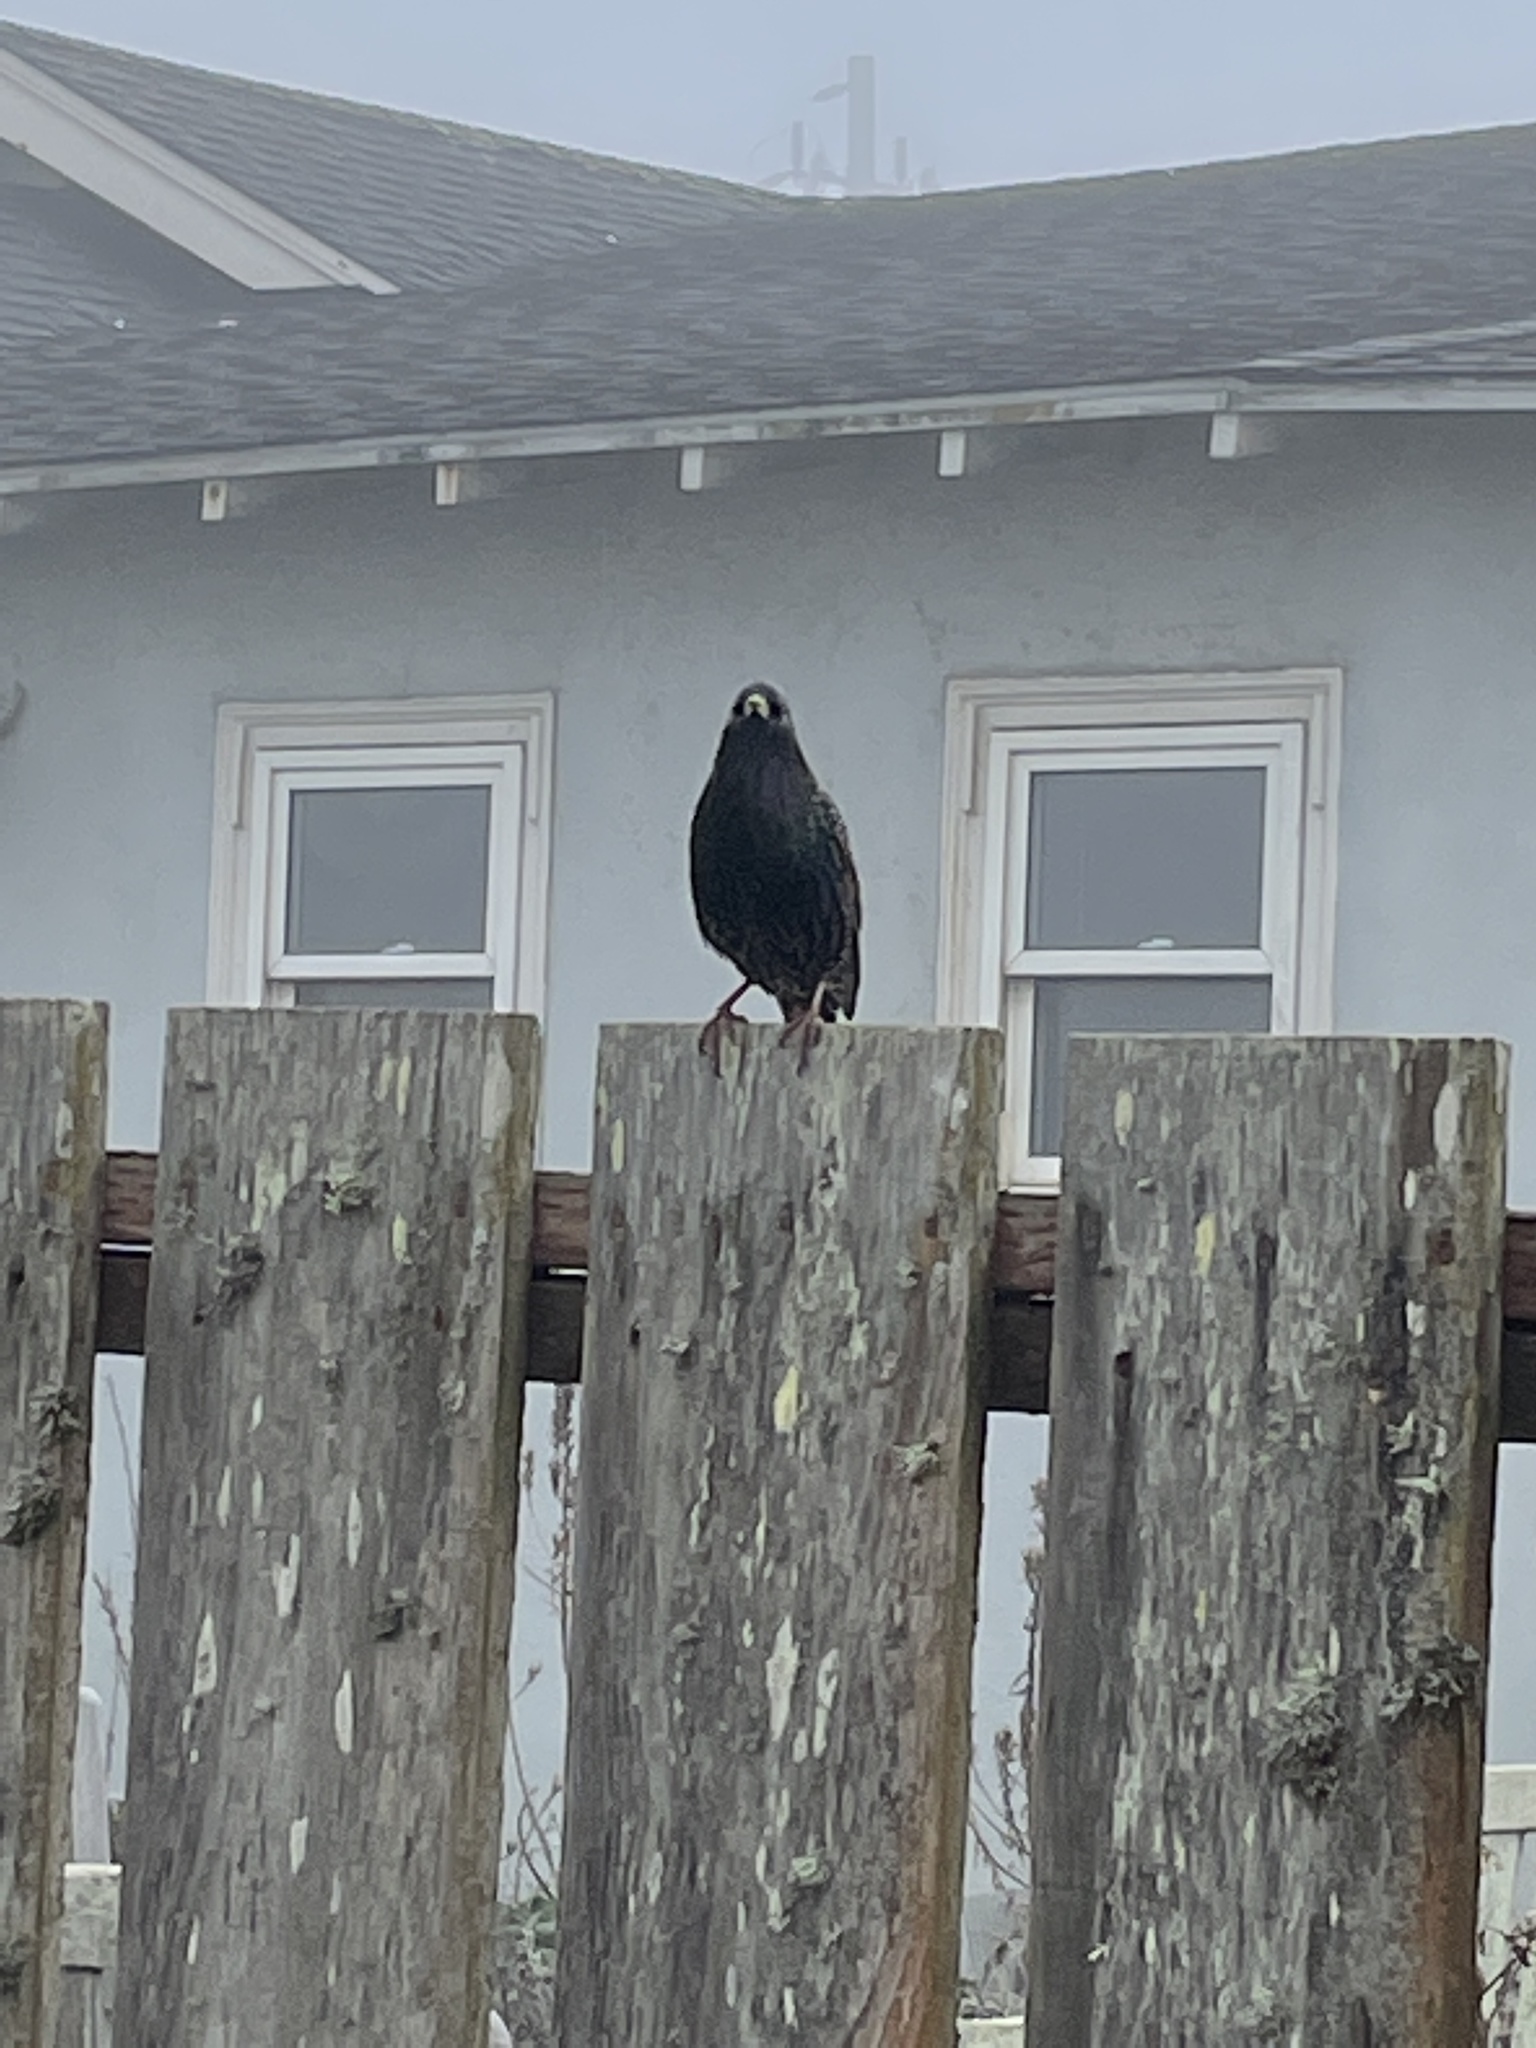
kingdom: Animalia
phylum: Chordata
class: Aves
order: Passeriformes
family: Sturnidae
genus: Sturnus
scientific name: Sturnus vulgaris
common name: Common starling
